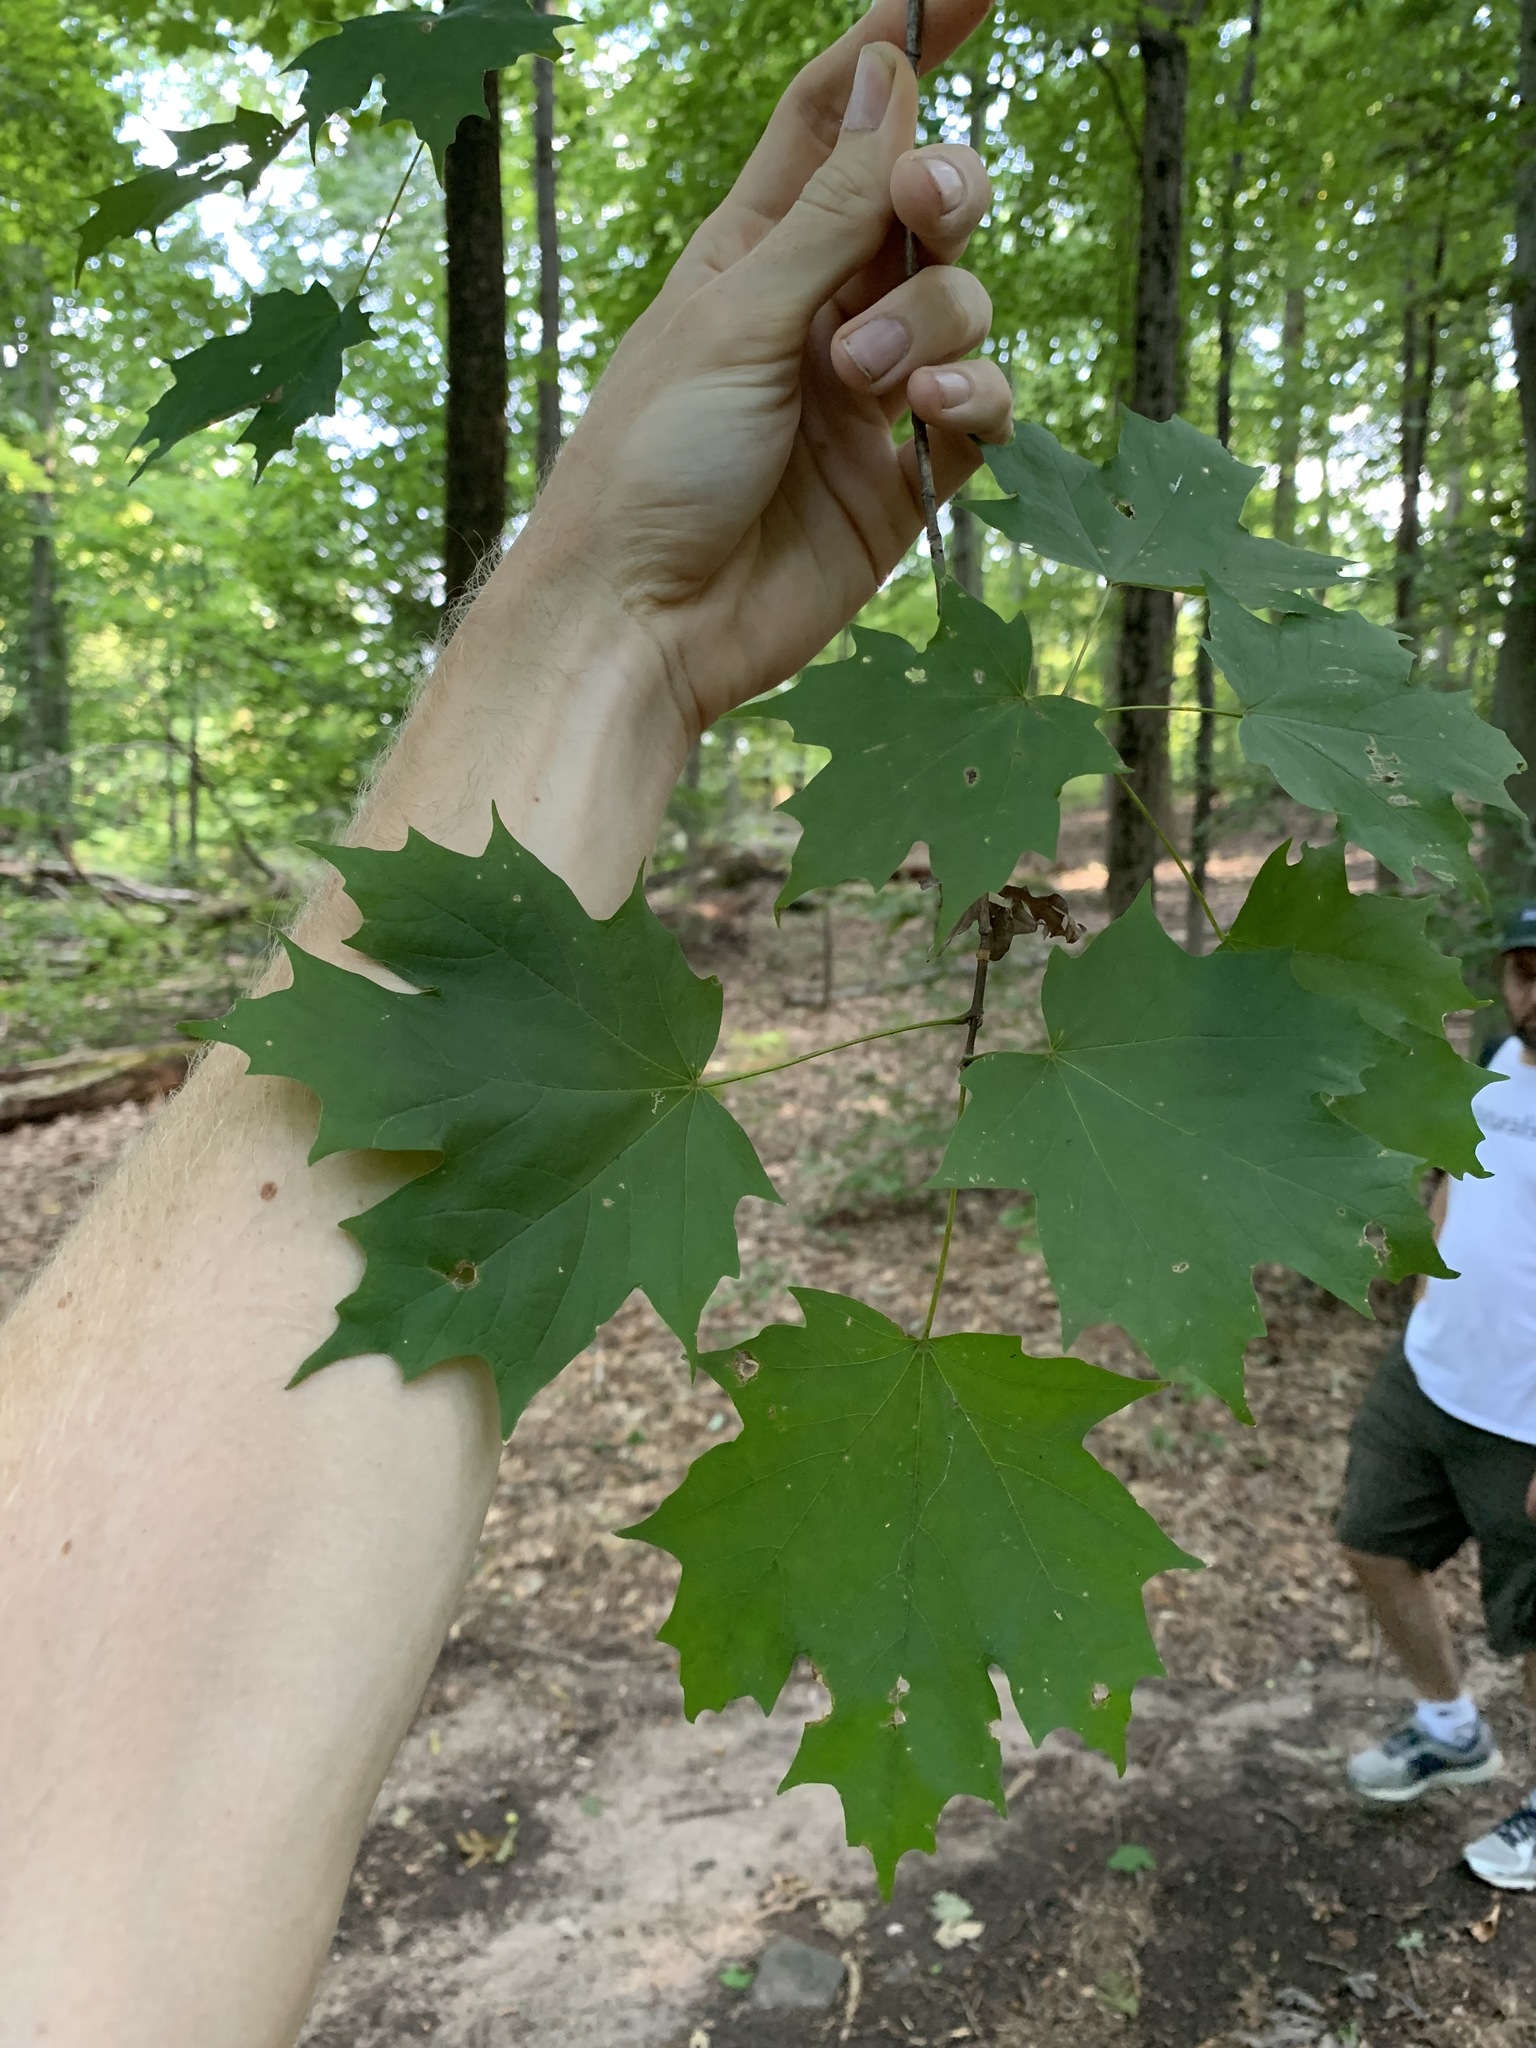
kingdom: Plantae
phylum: Tracheophyta
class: Magnoliopsida
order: Sapindales
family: Sapindaceae
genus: Acer
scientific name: Acer saccharum
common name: Sugar maple
